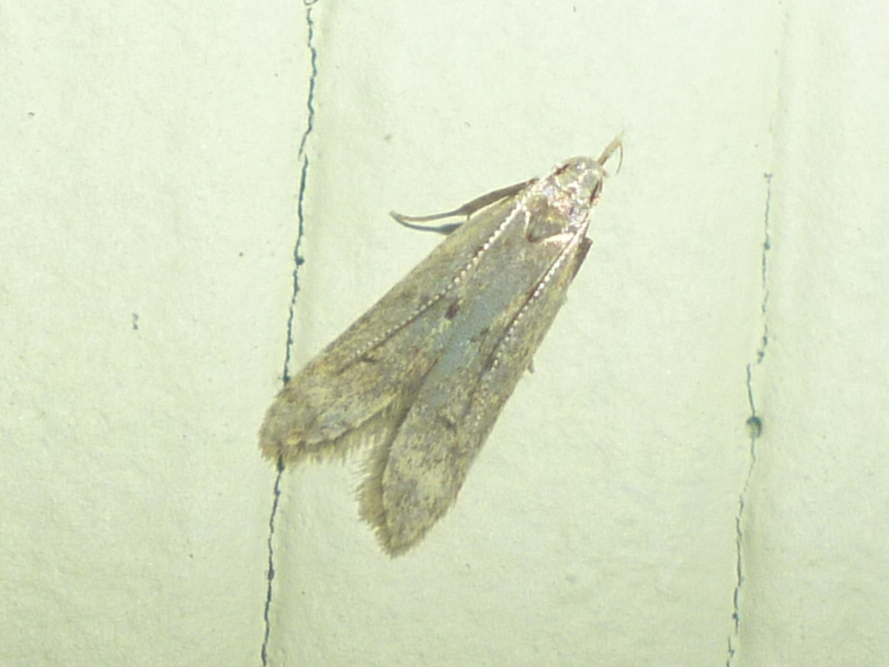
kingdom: Animalia
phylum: Arthropoda
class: Insecta
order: Lepidoptera
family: Gelechiidae
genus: Dichomeris
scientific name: Dichomeris punctipennella
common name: Many-spotted dichomeris moth
